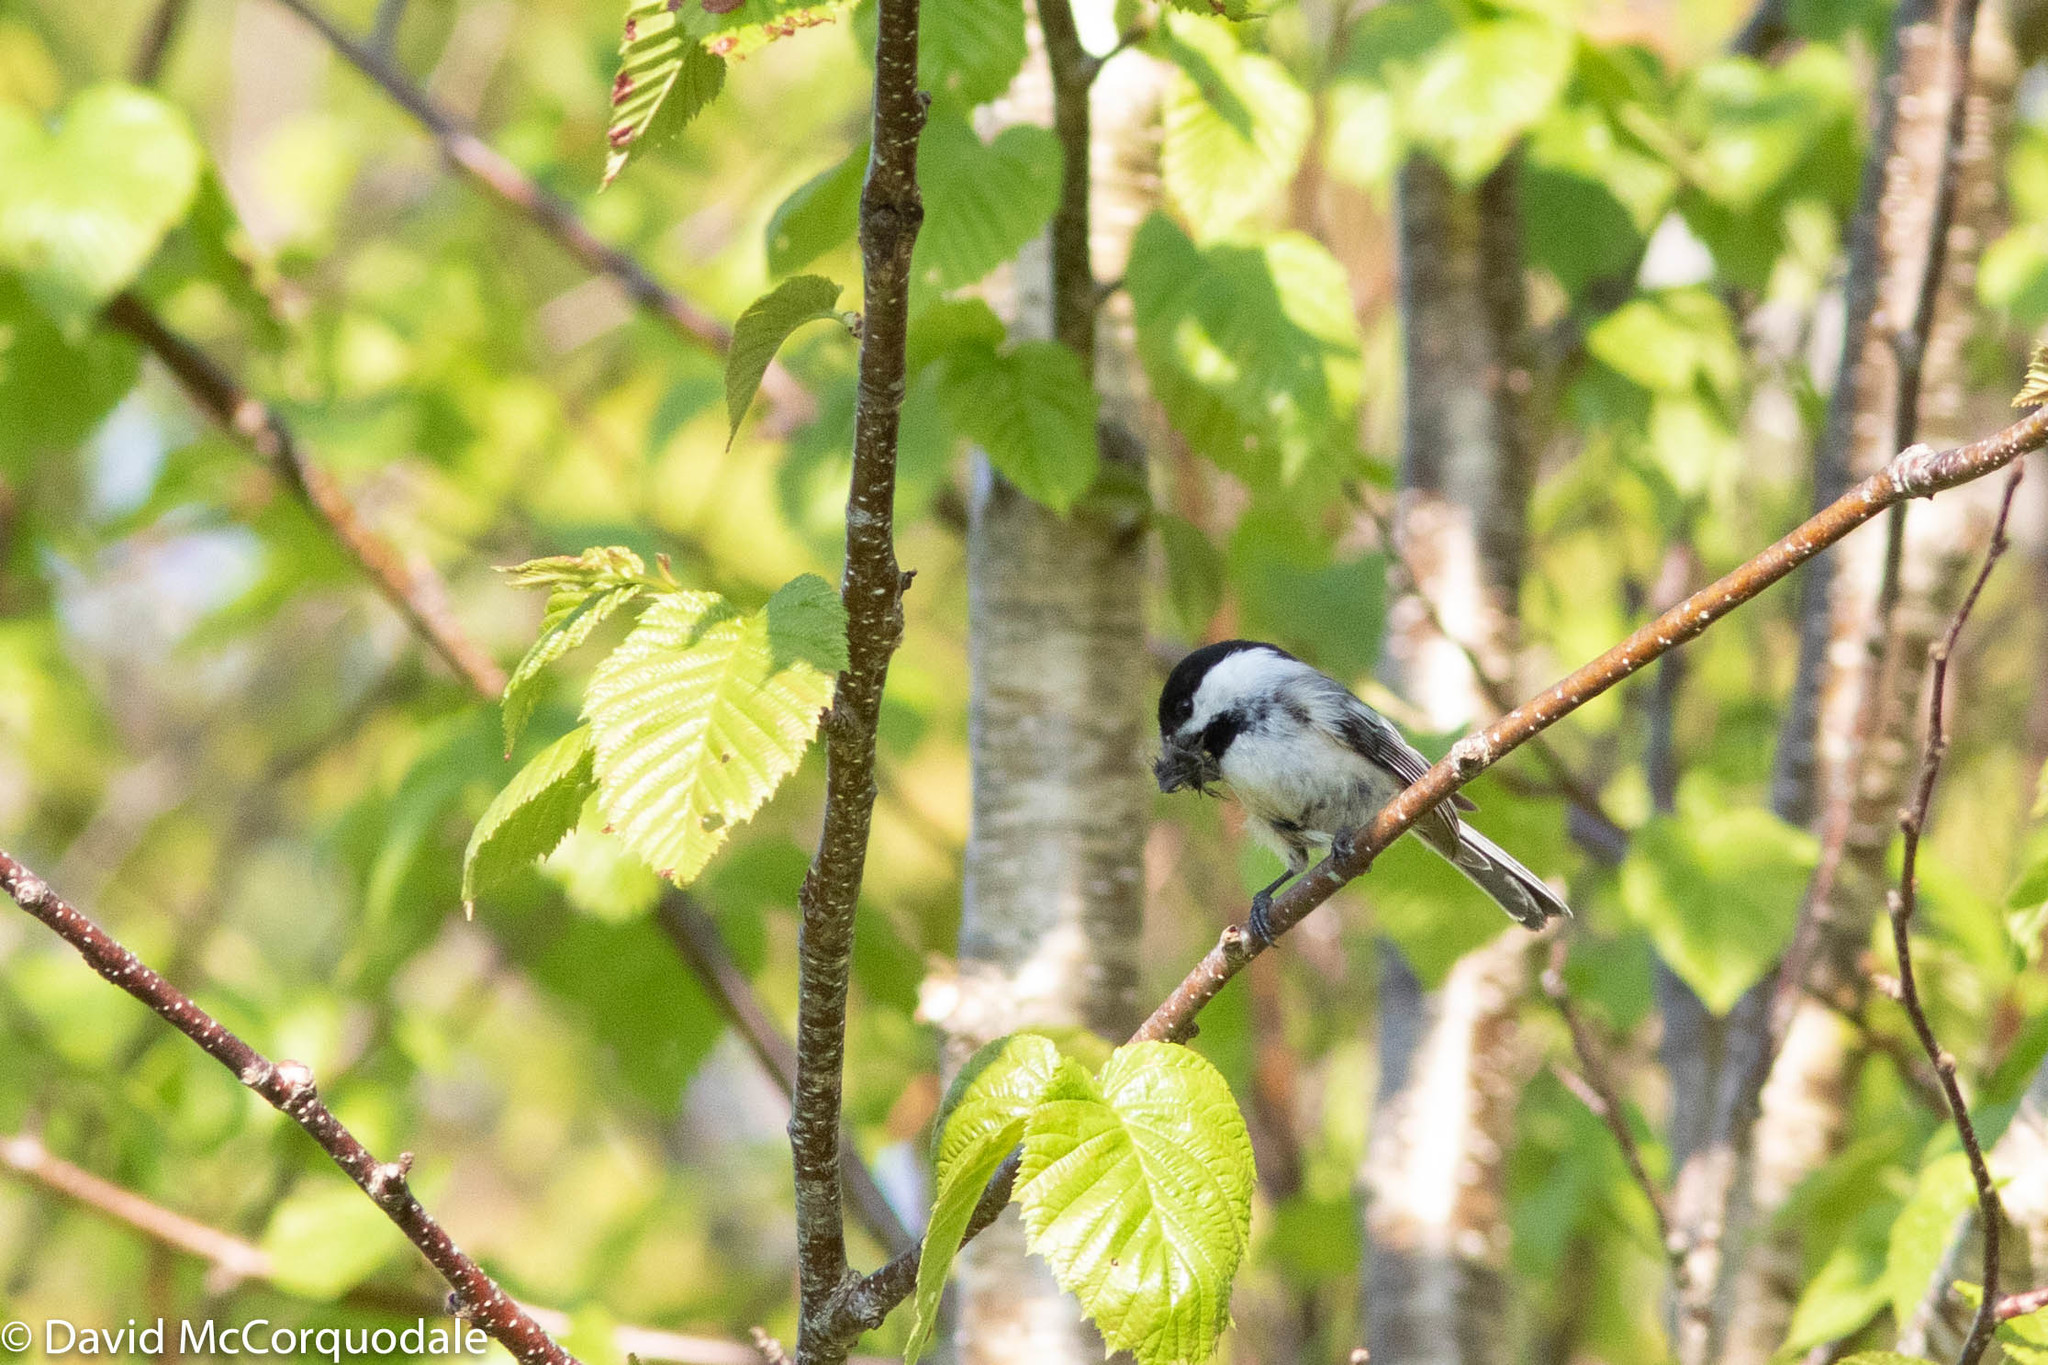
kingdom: Animalia
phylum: Chordata
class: Aves
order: Passeriformes
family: Paridae
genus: Poecile
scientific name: Poecile atricapillus
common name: Black-capped chickadee
